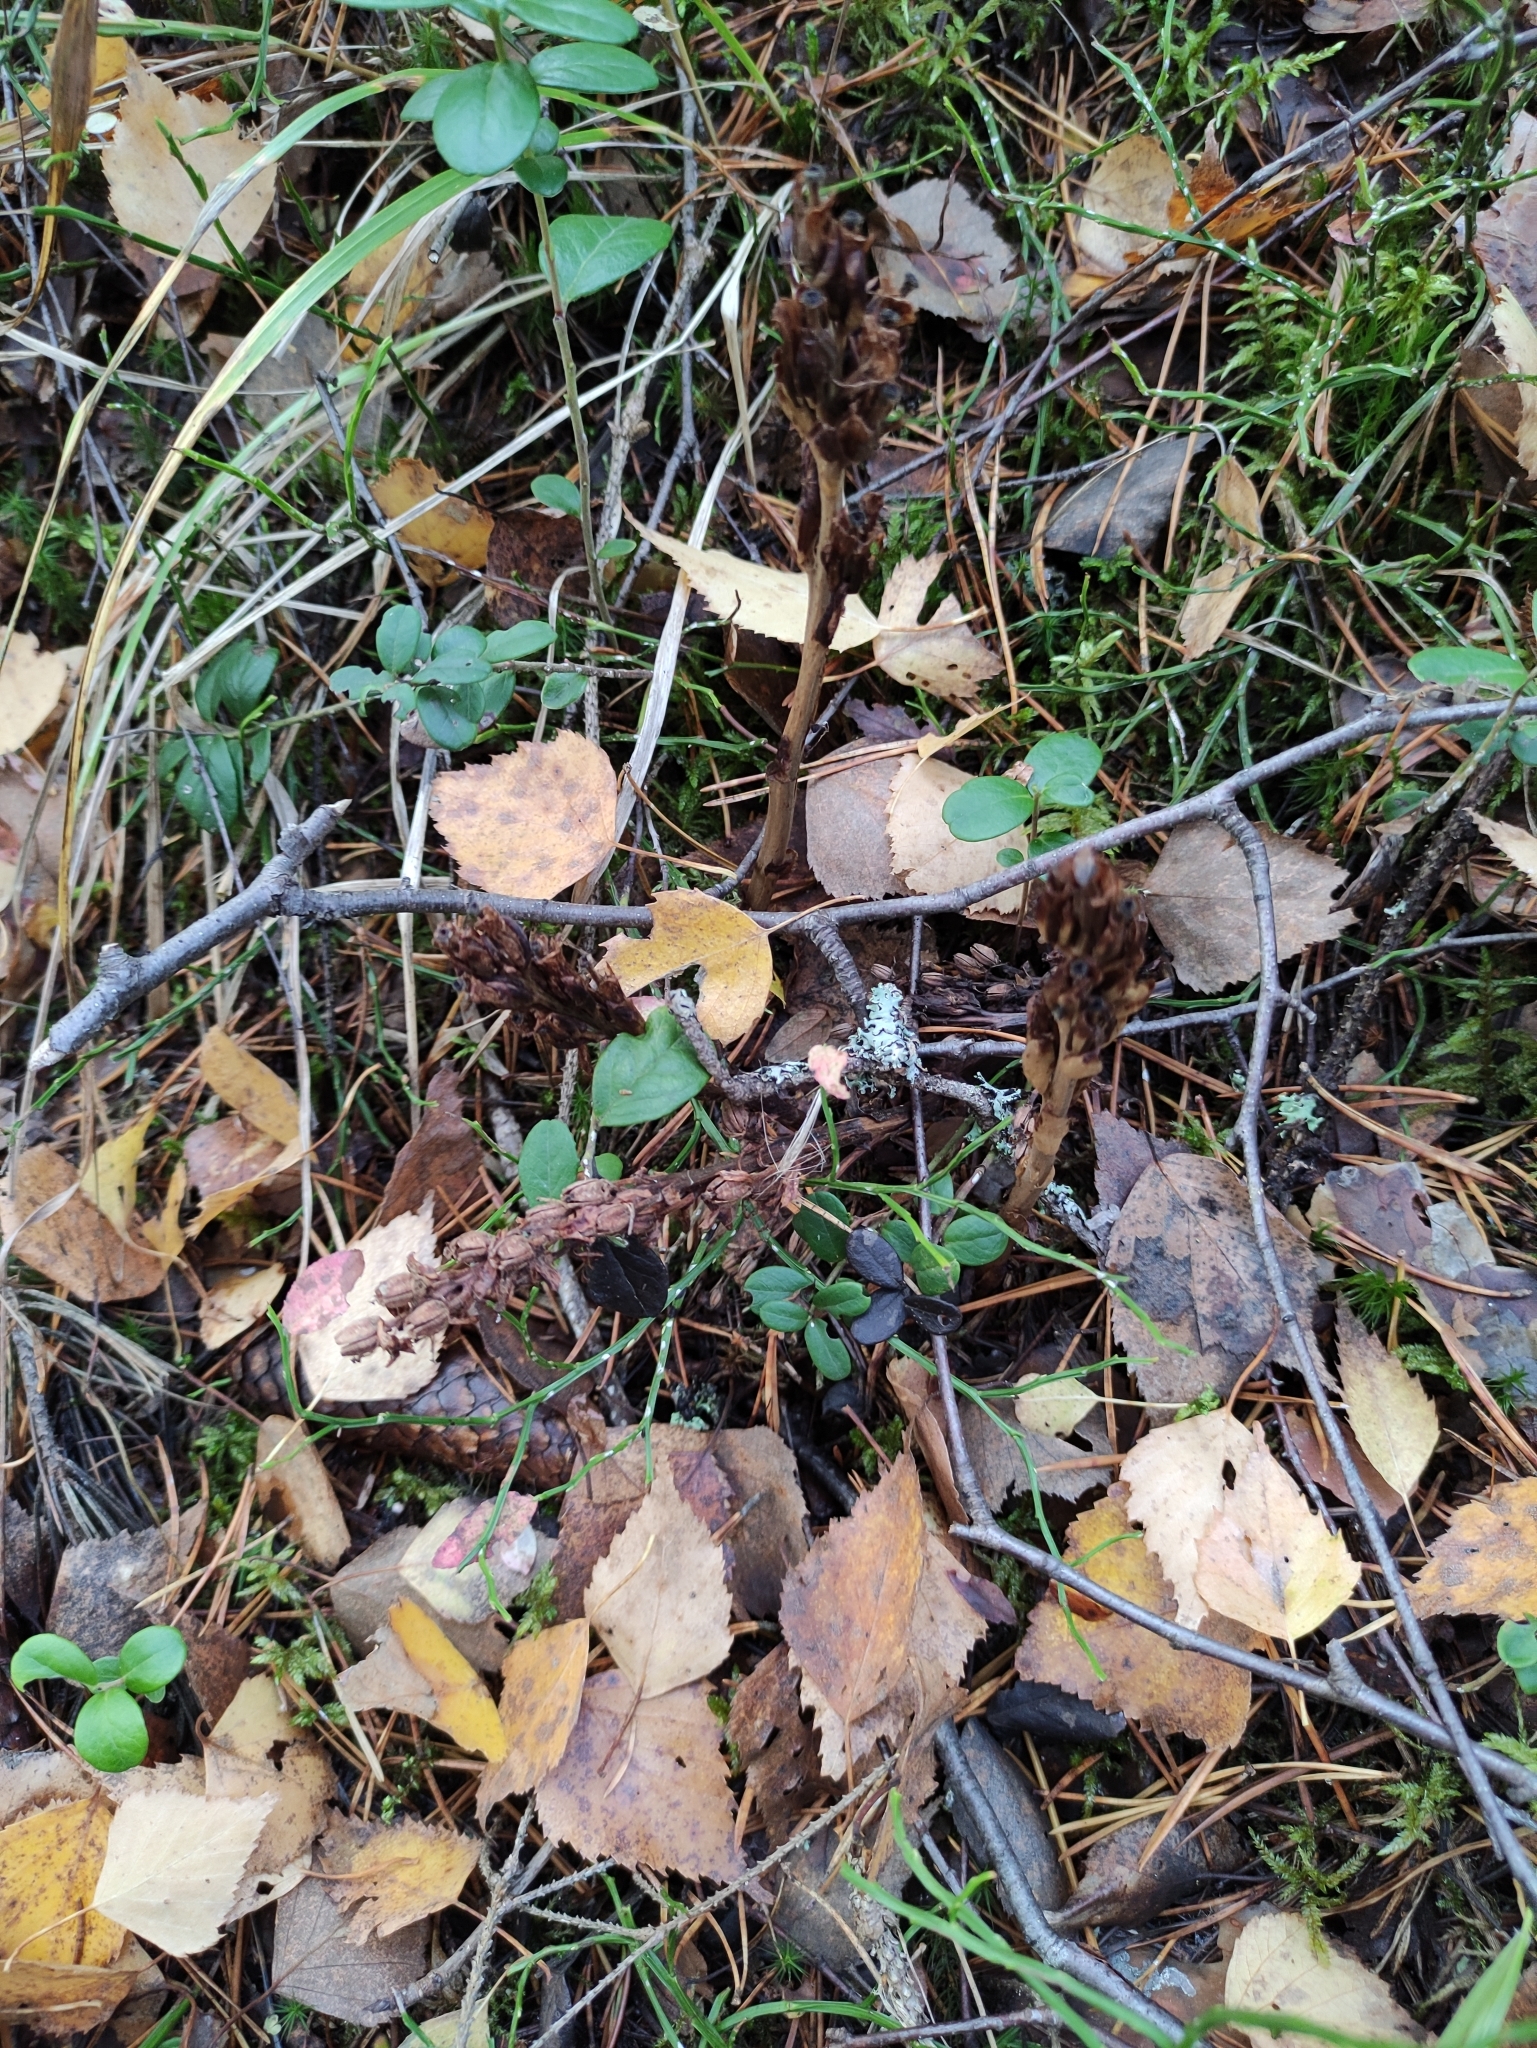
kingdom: Plantae
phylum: Tracheophyta
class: Magnoliopsida
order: Ericales
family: Ericaceae
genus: Hypopitys
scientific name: Hypopitys monotropa
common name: Yellow bird's-nest
